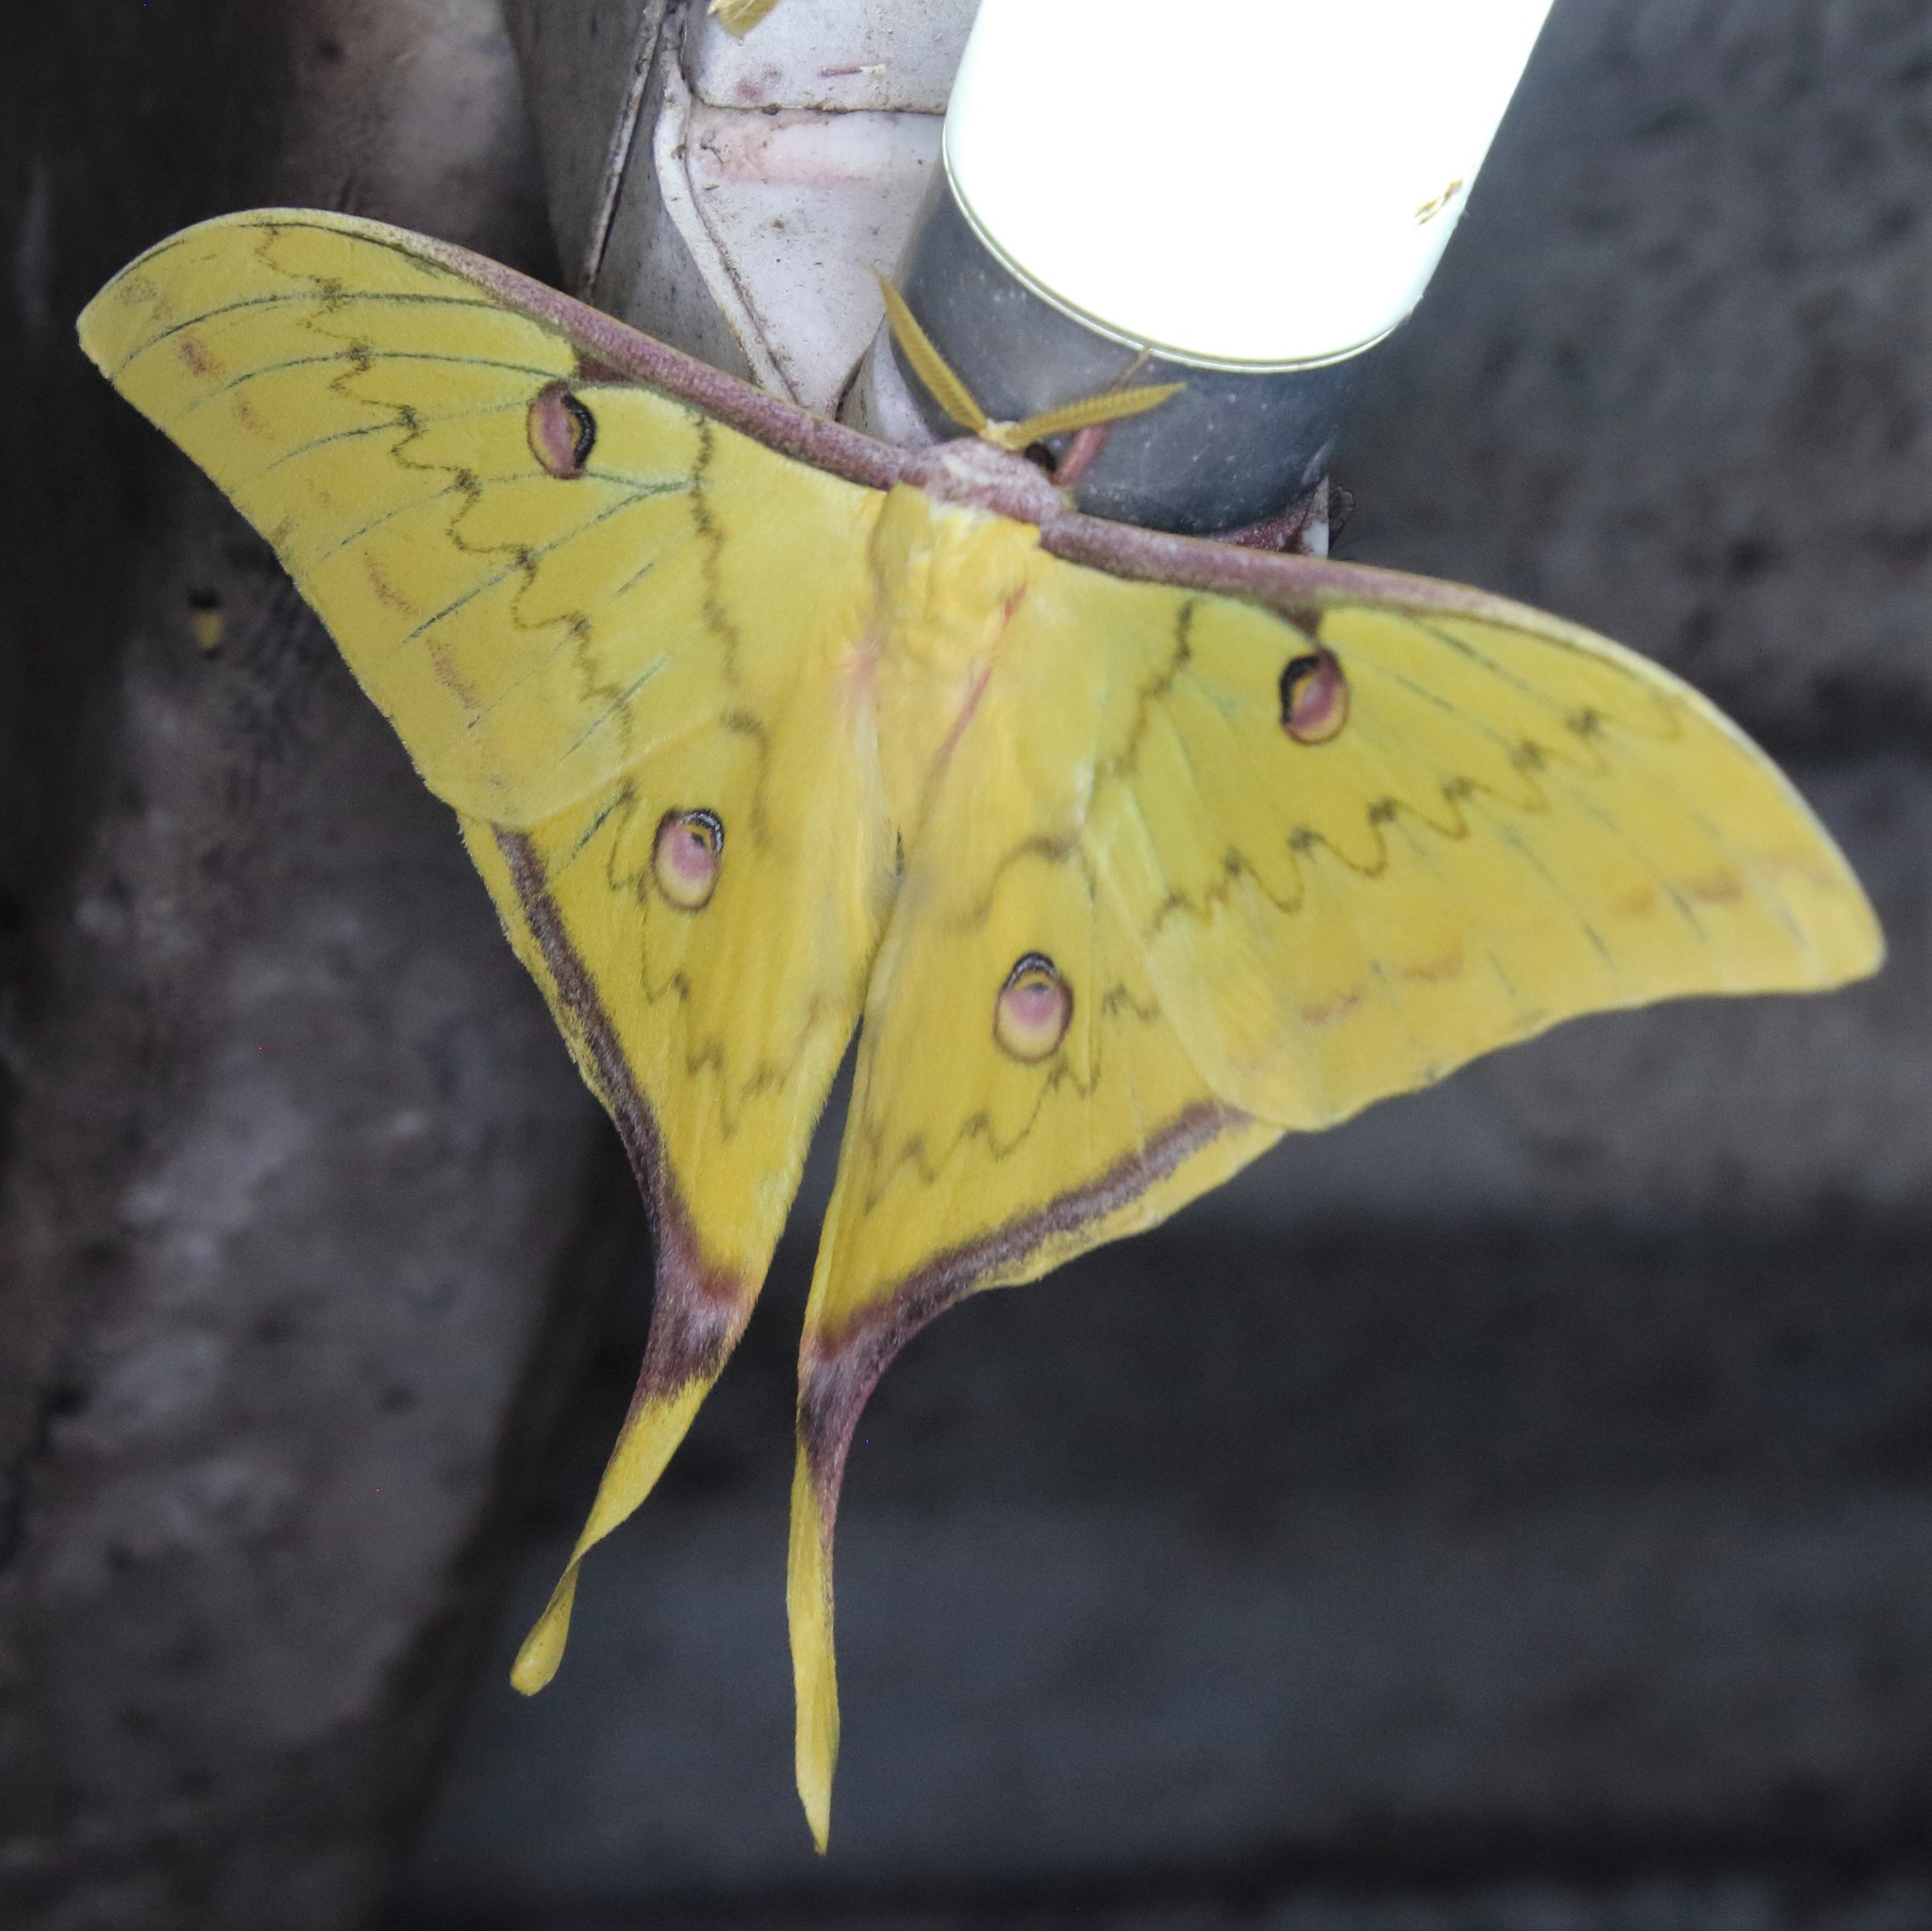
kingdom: Animalia
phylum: Arthropoda
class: Insecta
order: Lepidoptera
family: Saturniidae
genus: Actias
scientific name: Actias sinensis
